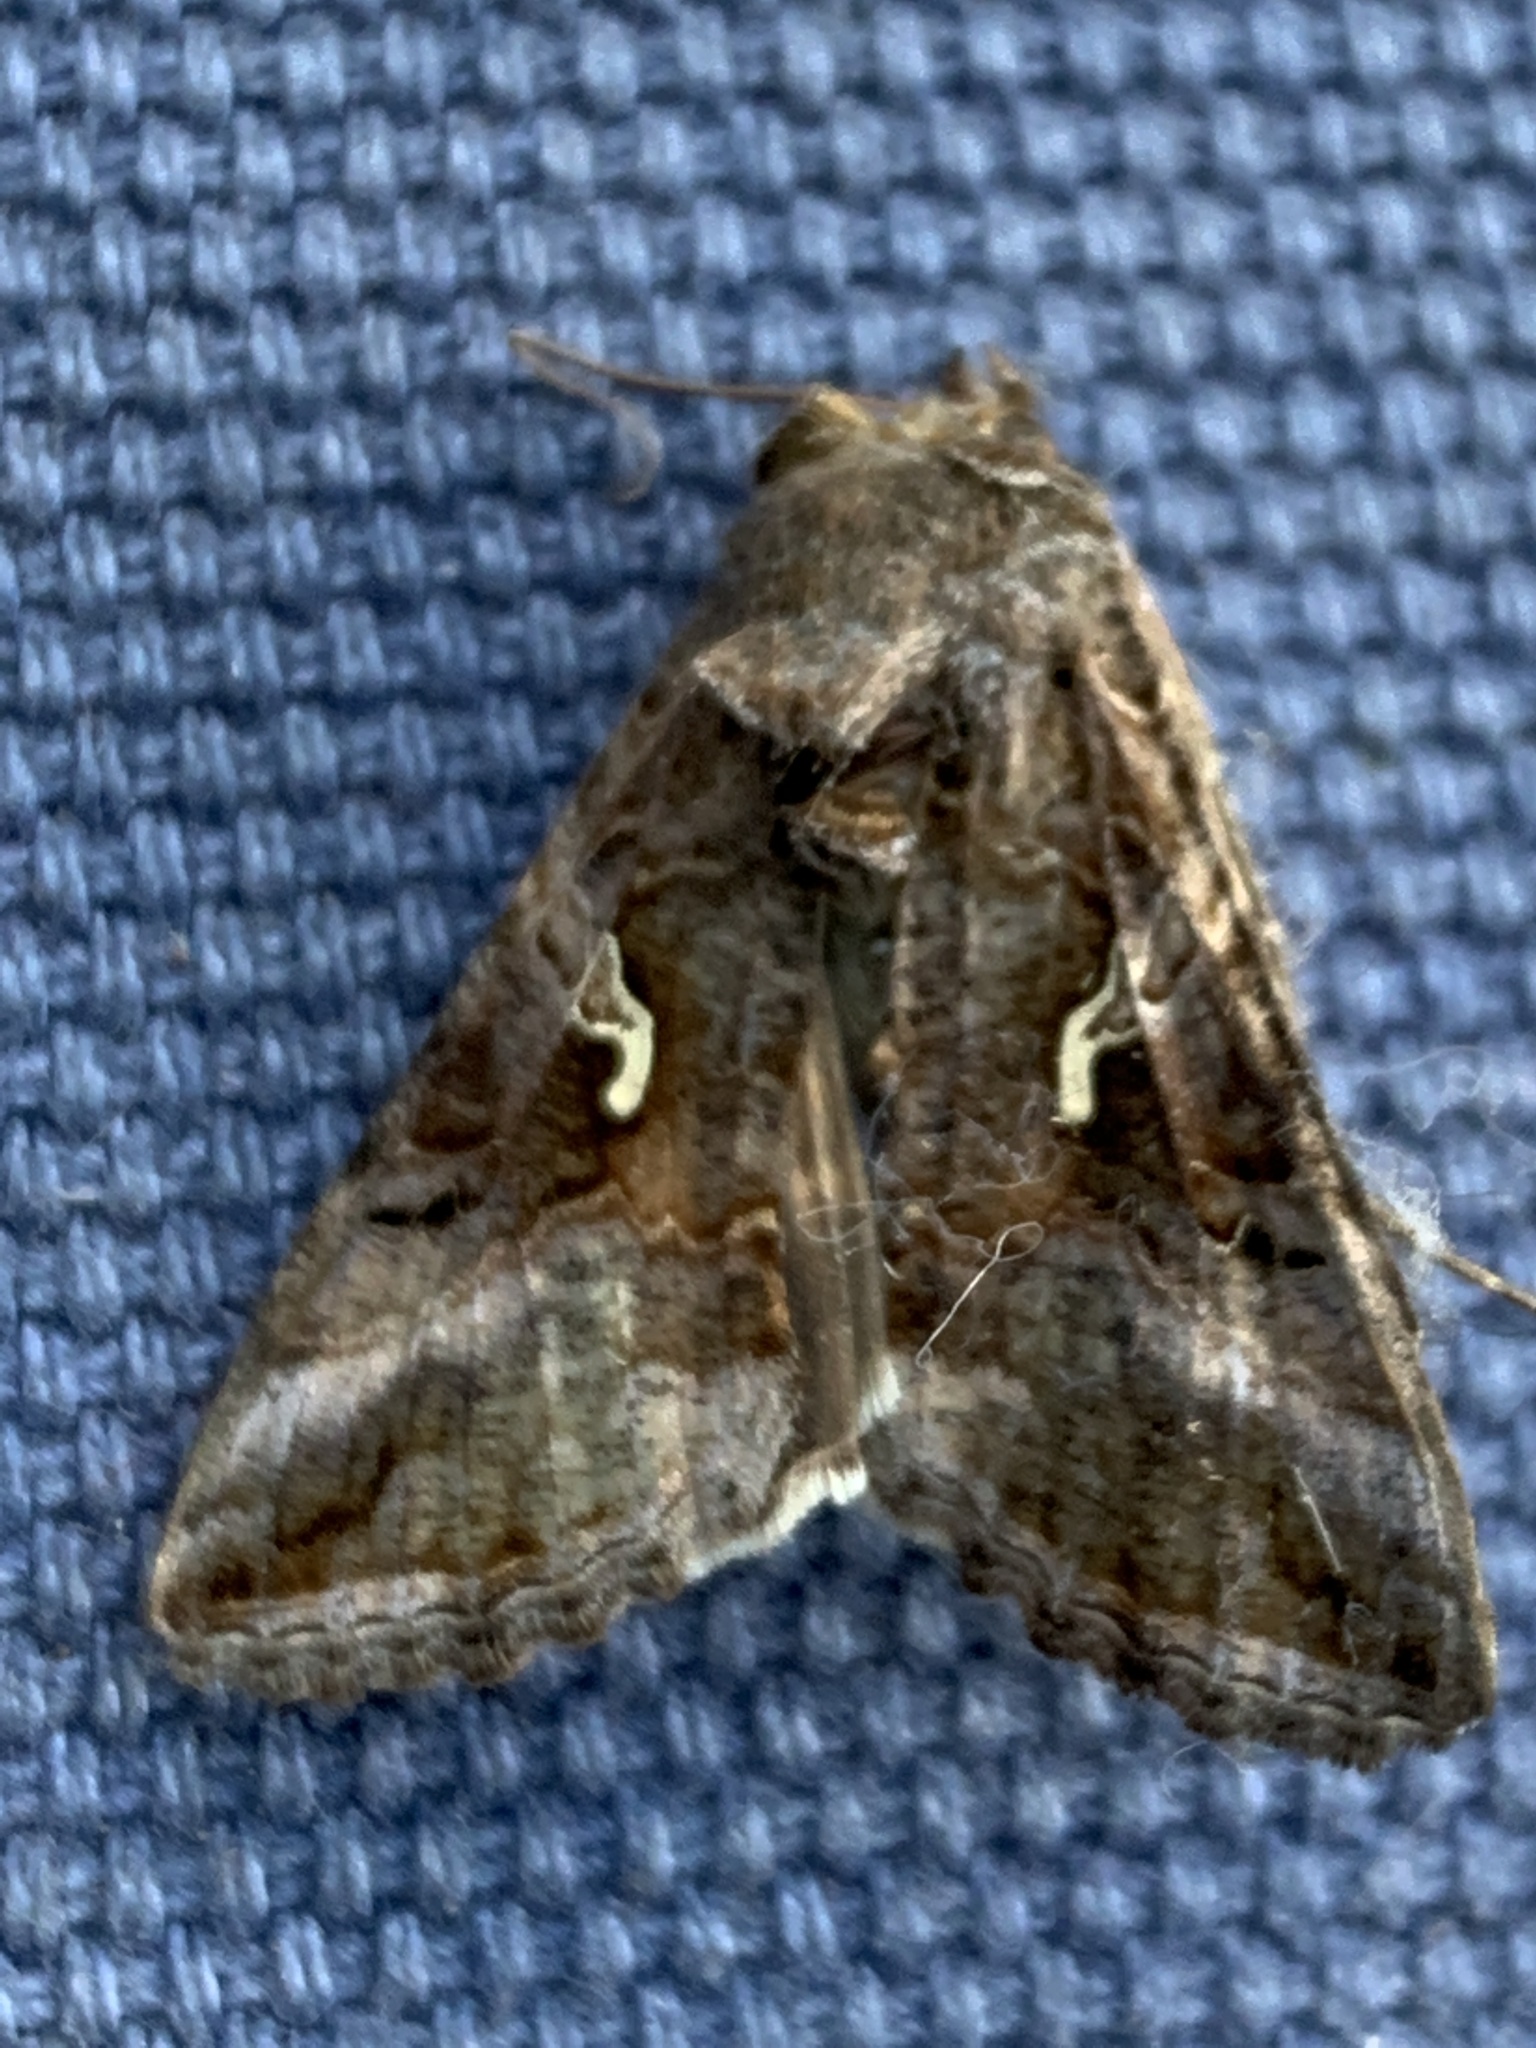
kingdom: Animalia
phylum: Arthropoda
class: Insecta
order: Lepidoptera
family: Noctuidae
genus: Autographa
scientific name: Autographa gamma
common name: Silver y
